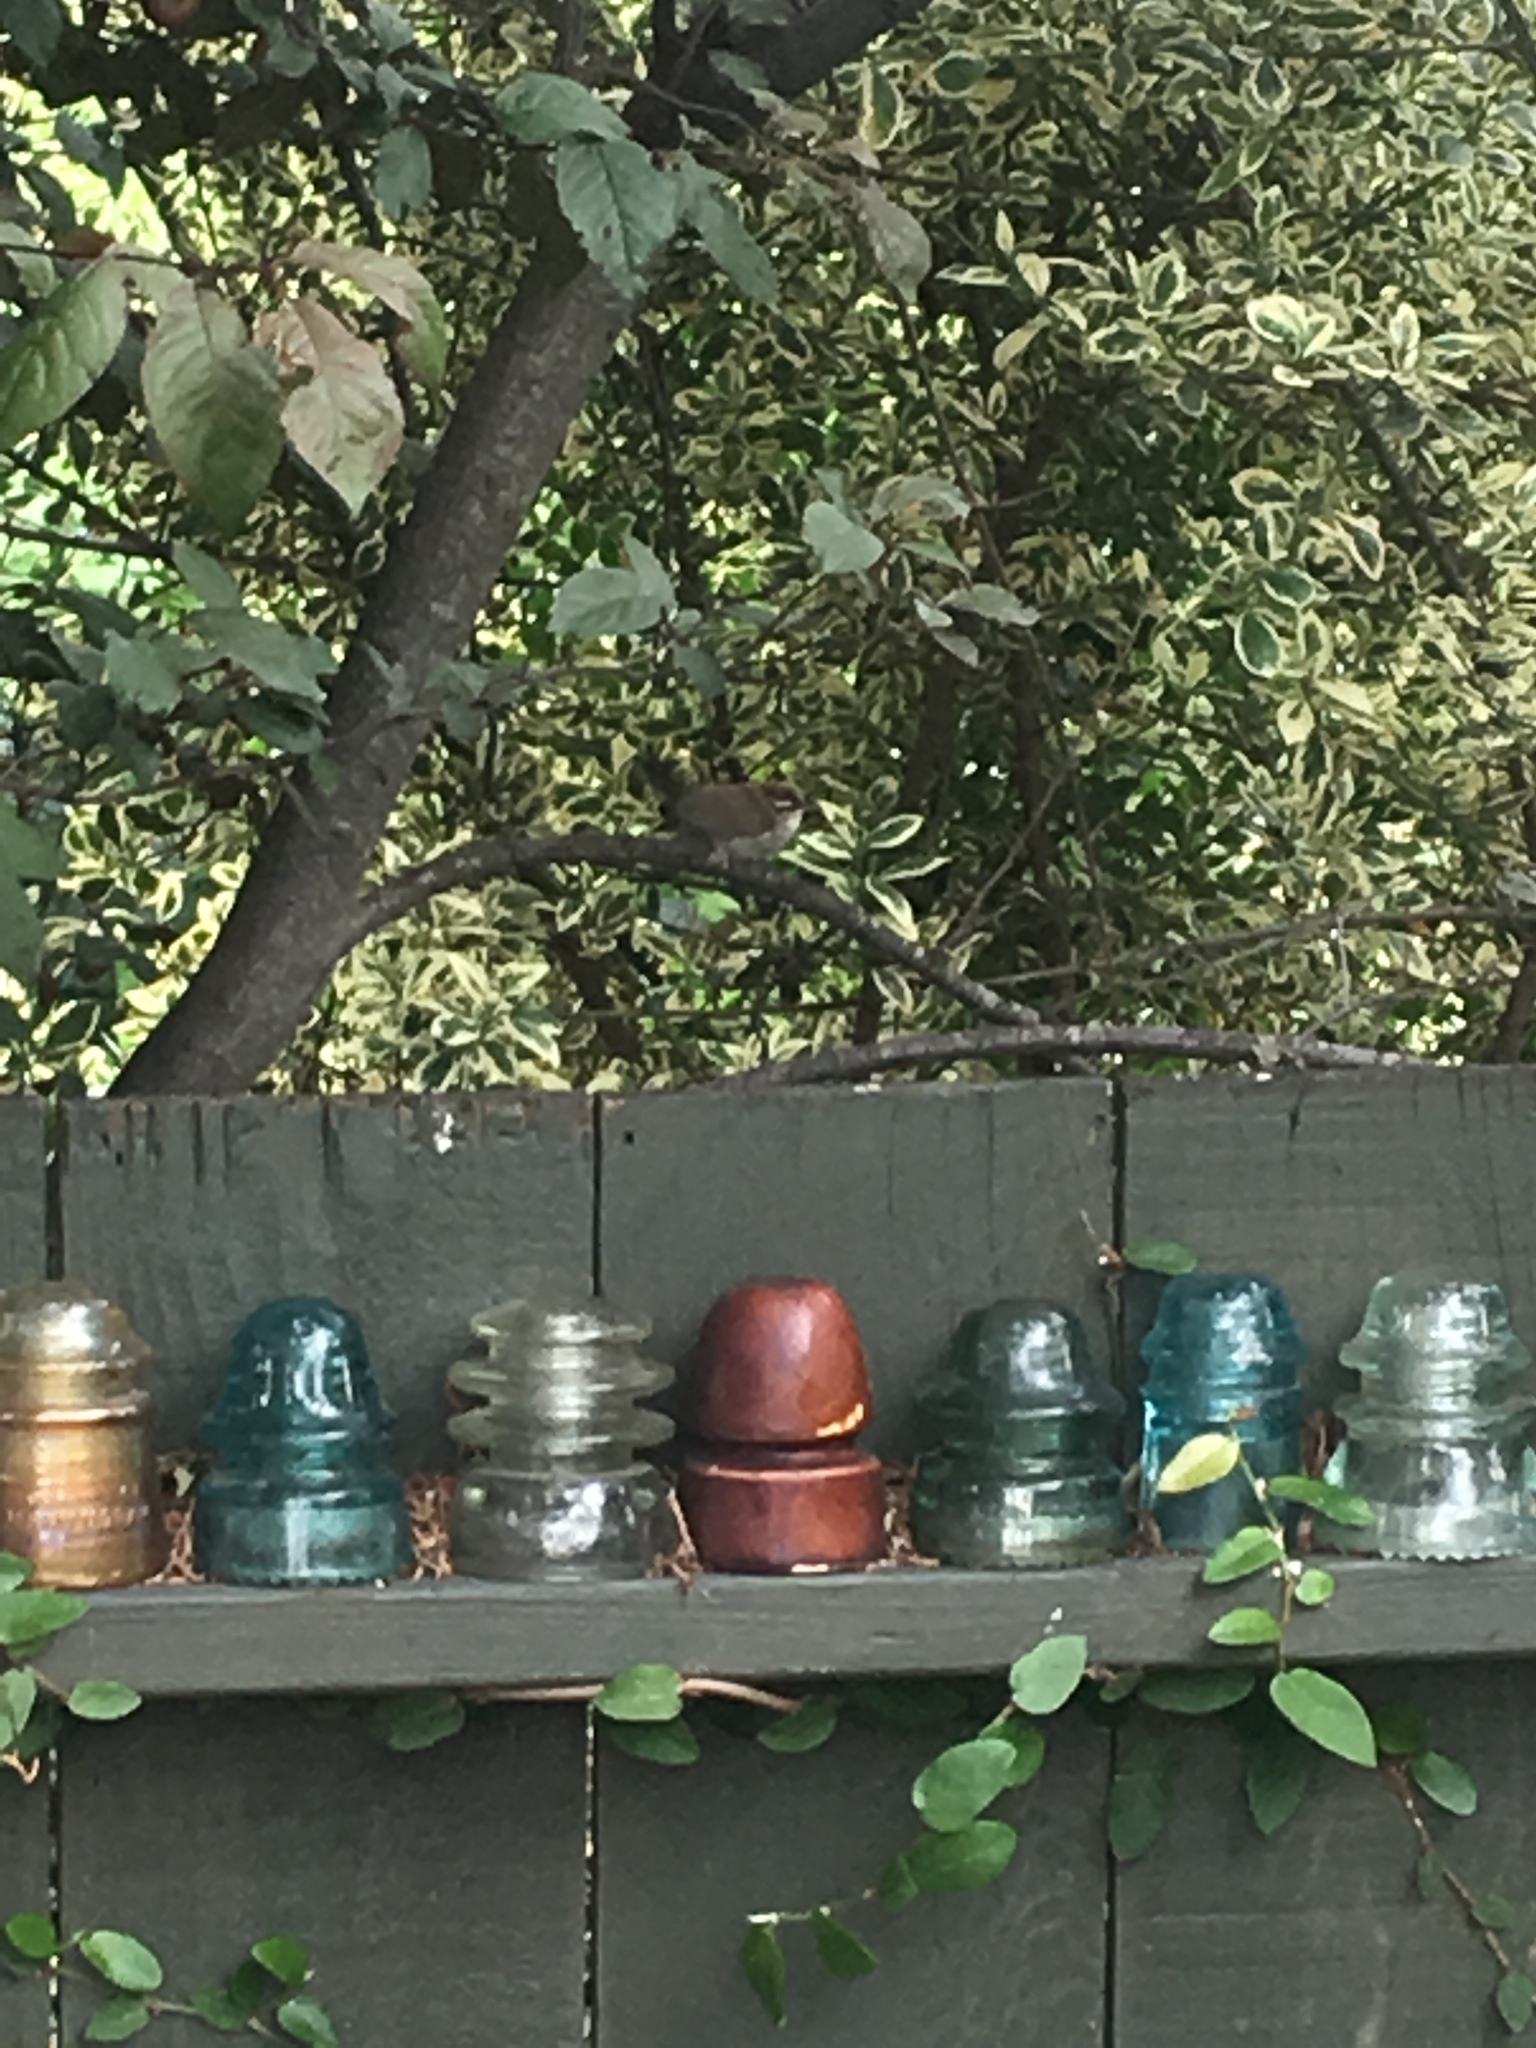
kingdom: Animalia
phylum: Chordata
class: Aves
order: Passeriformes
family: Troglodytidae
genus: Thryomanes
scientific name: Thryomanes bewickii
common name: Bewick's wren
